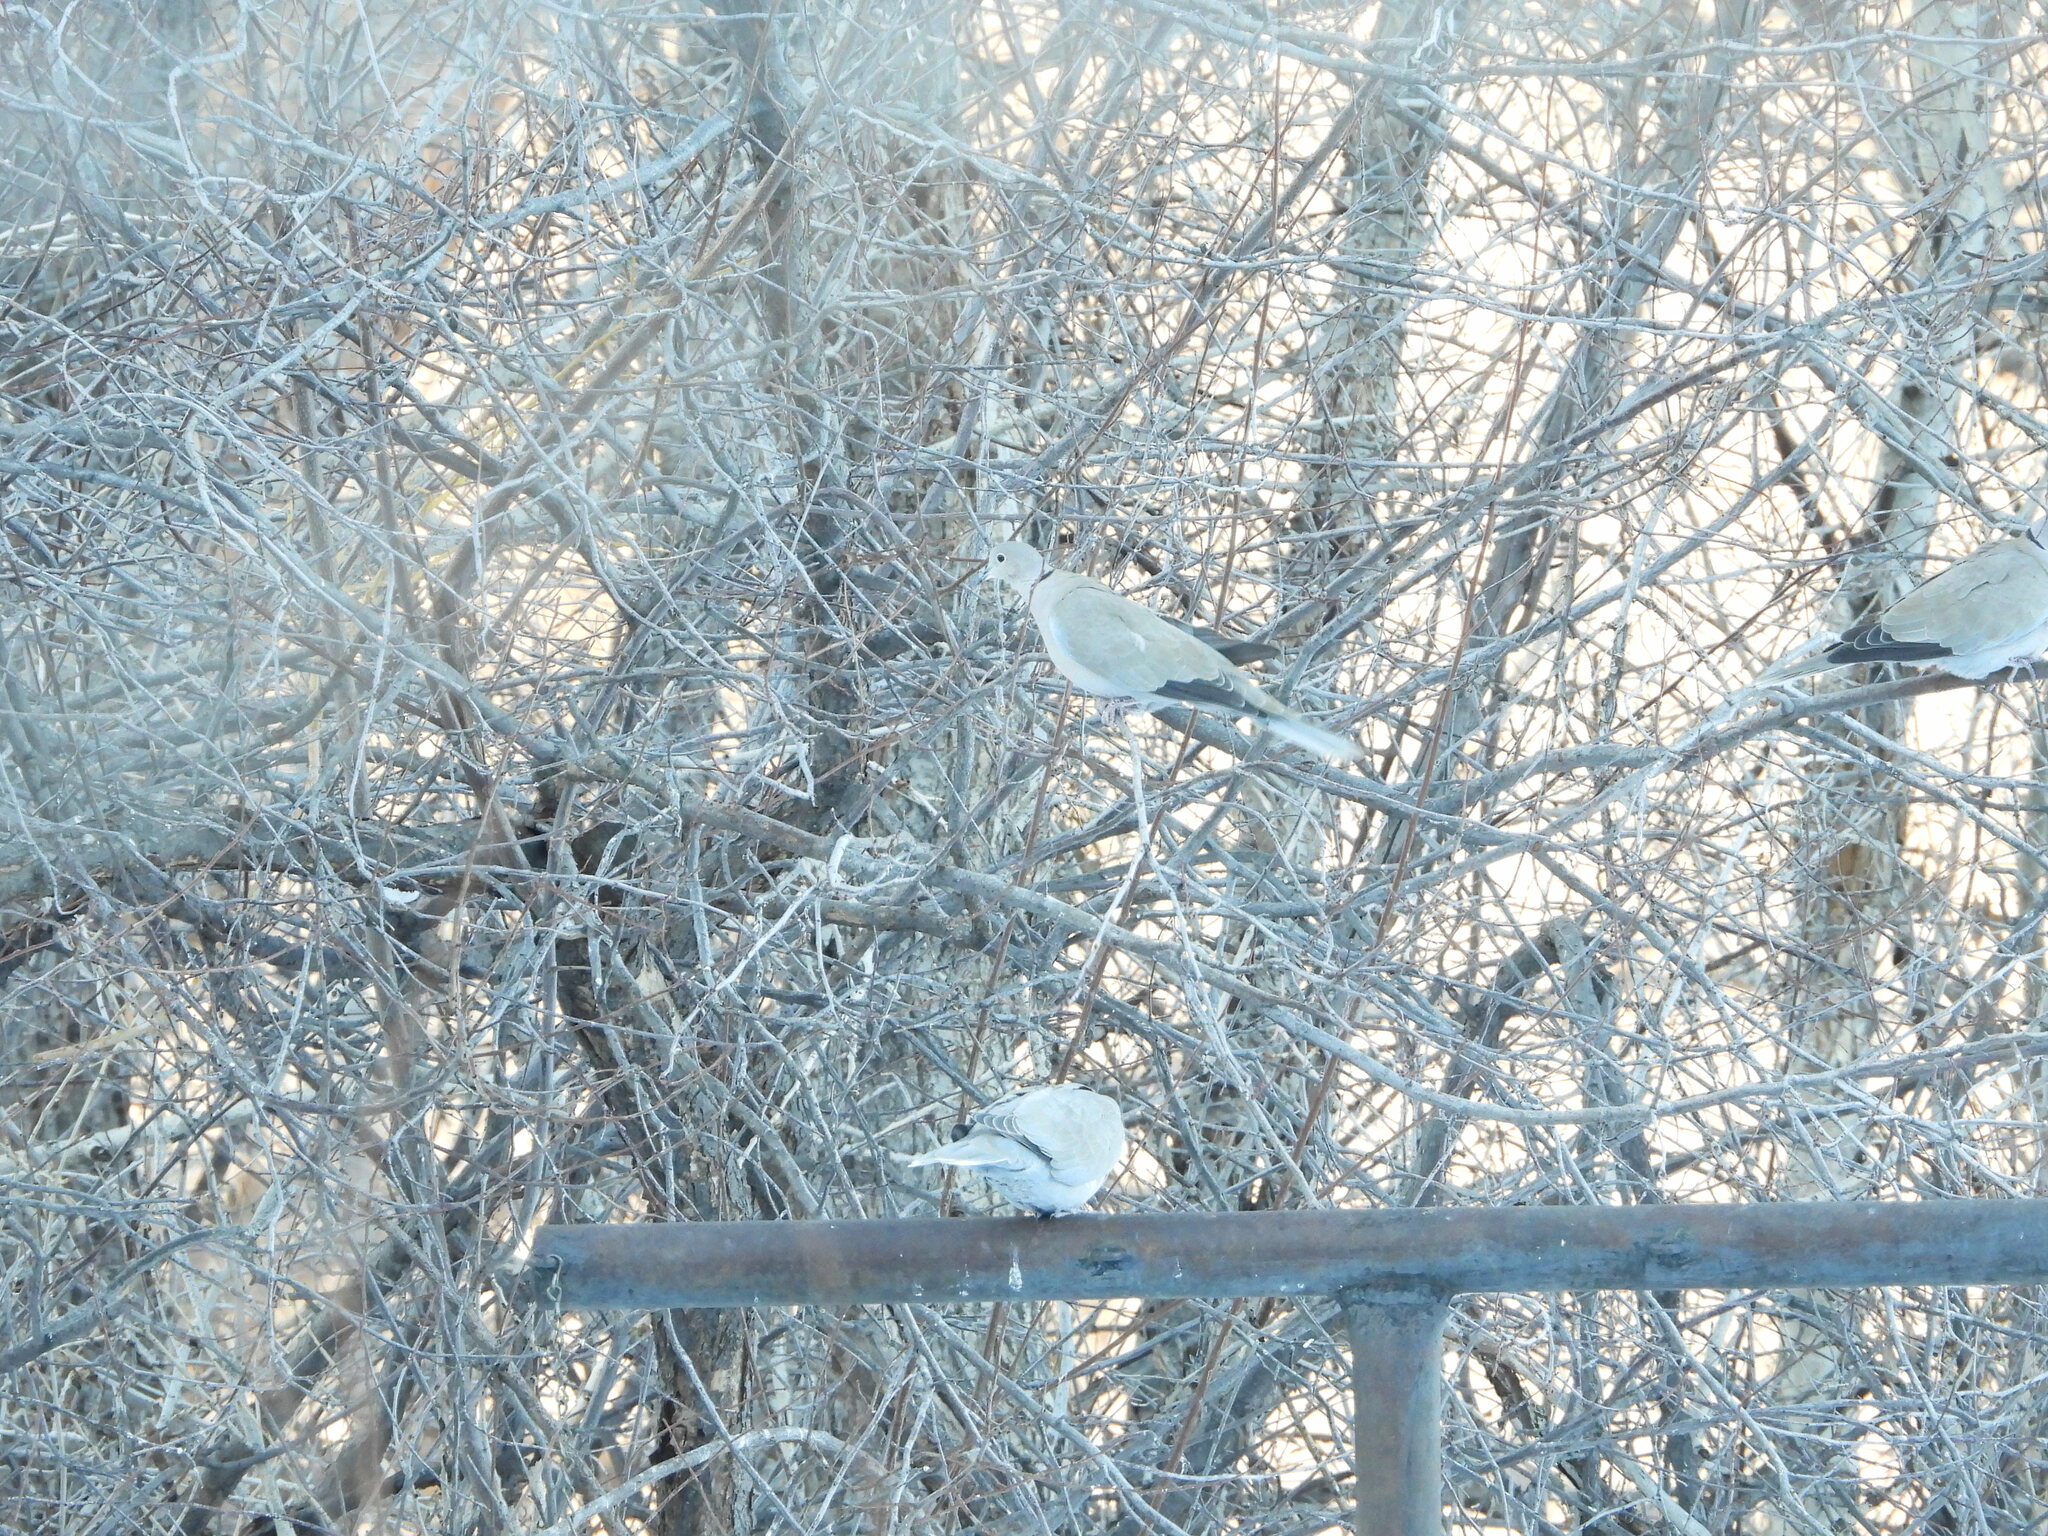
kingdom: Animalia
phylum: Chordata
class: Aves
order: Columbiformes
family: Columbidae
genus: Streptopelia
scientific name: Streptopelia decaocto
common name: Eurasian collared dove
